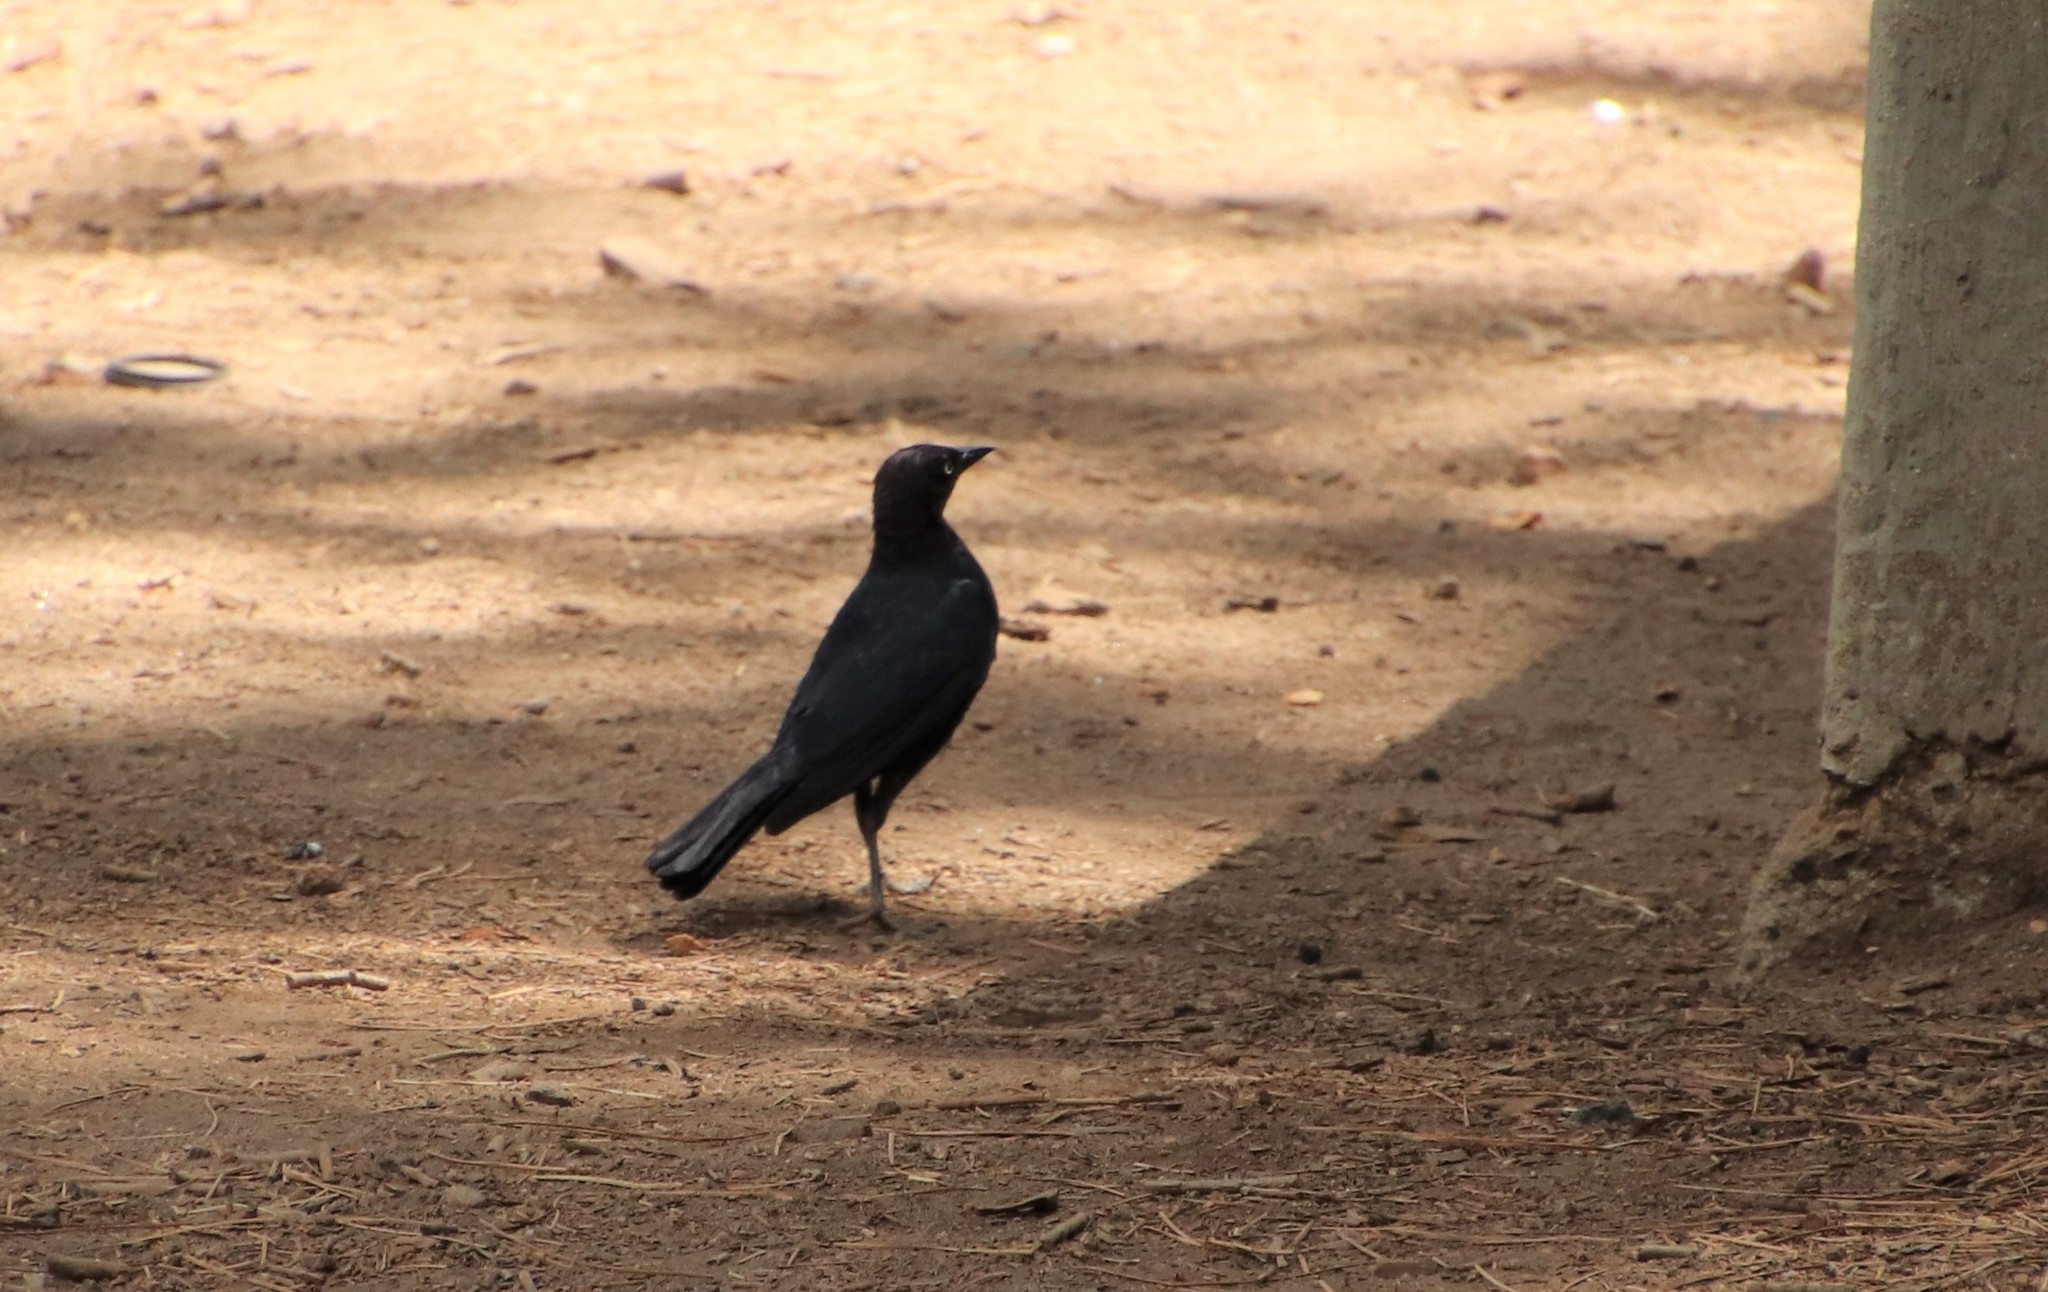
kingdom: Animalia
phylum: Chordata
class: Aves
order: Passeriformes
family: Icteridae
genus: Euphagus
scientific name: Euphagus cyanocephalus
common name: Brewer's blackbird
